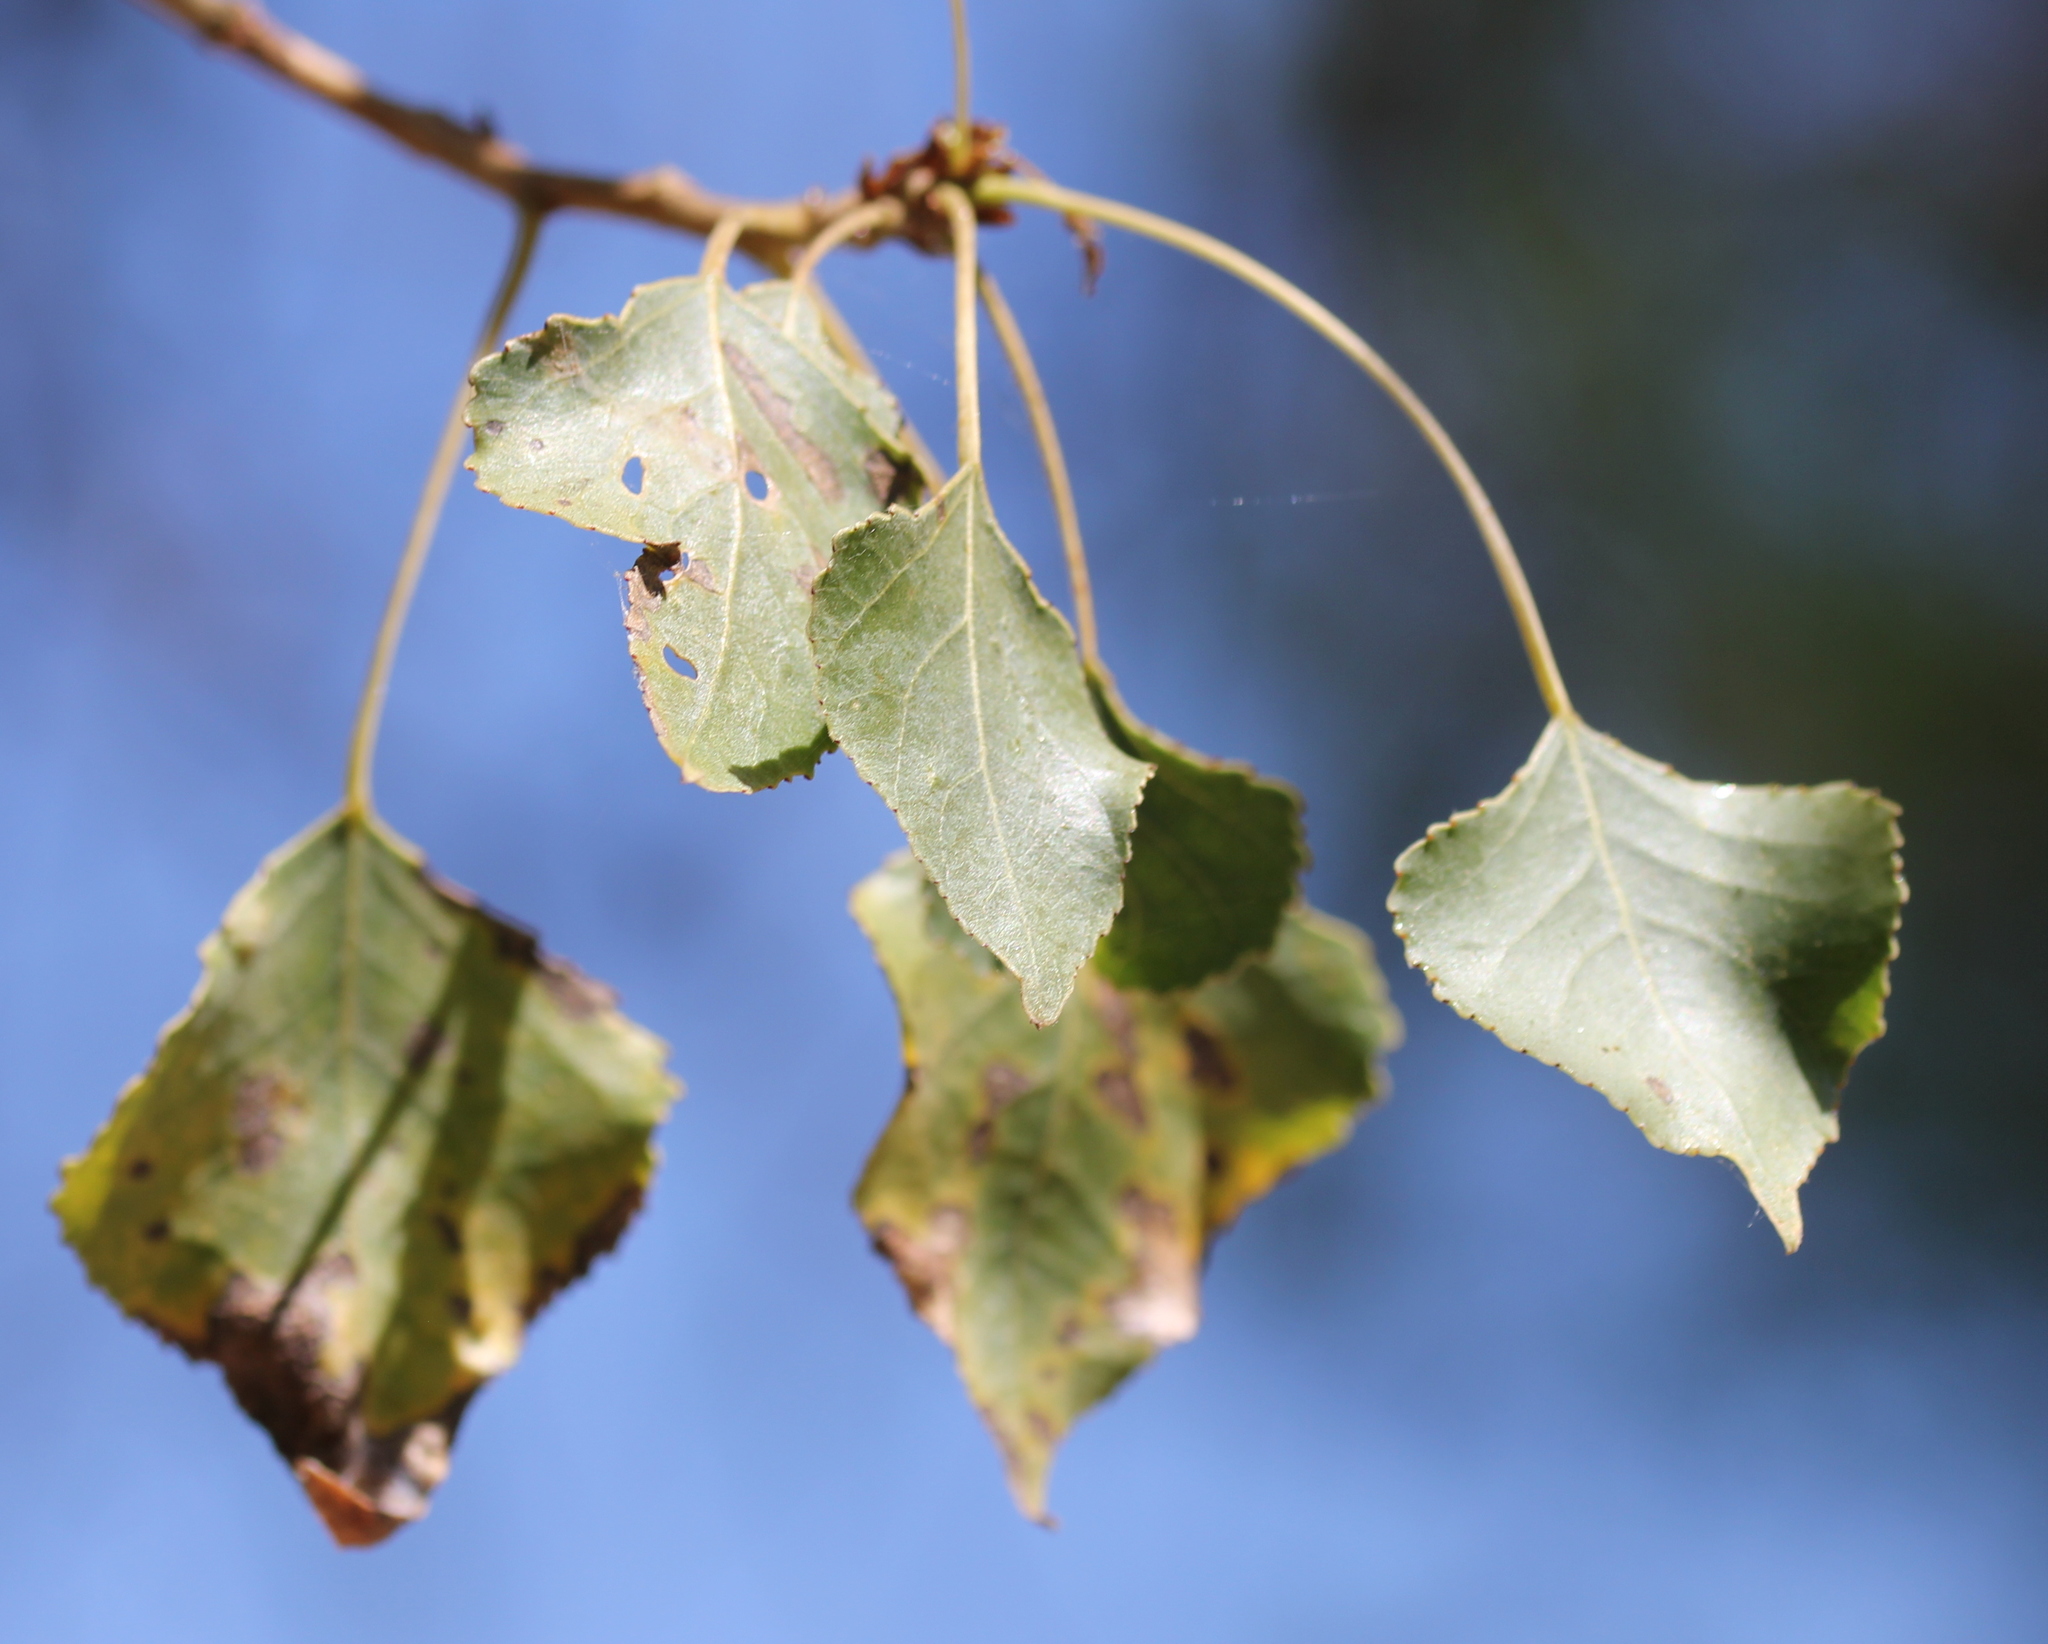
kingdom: Plantae
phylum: Tracheophyta
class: Magnoliopsida
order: Malpighiales
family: Salicaceae
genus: Populus
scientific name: Populus fremontii
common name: Fremont's cottonwood
